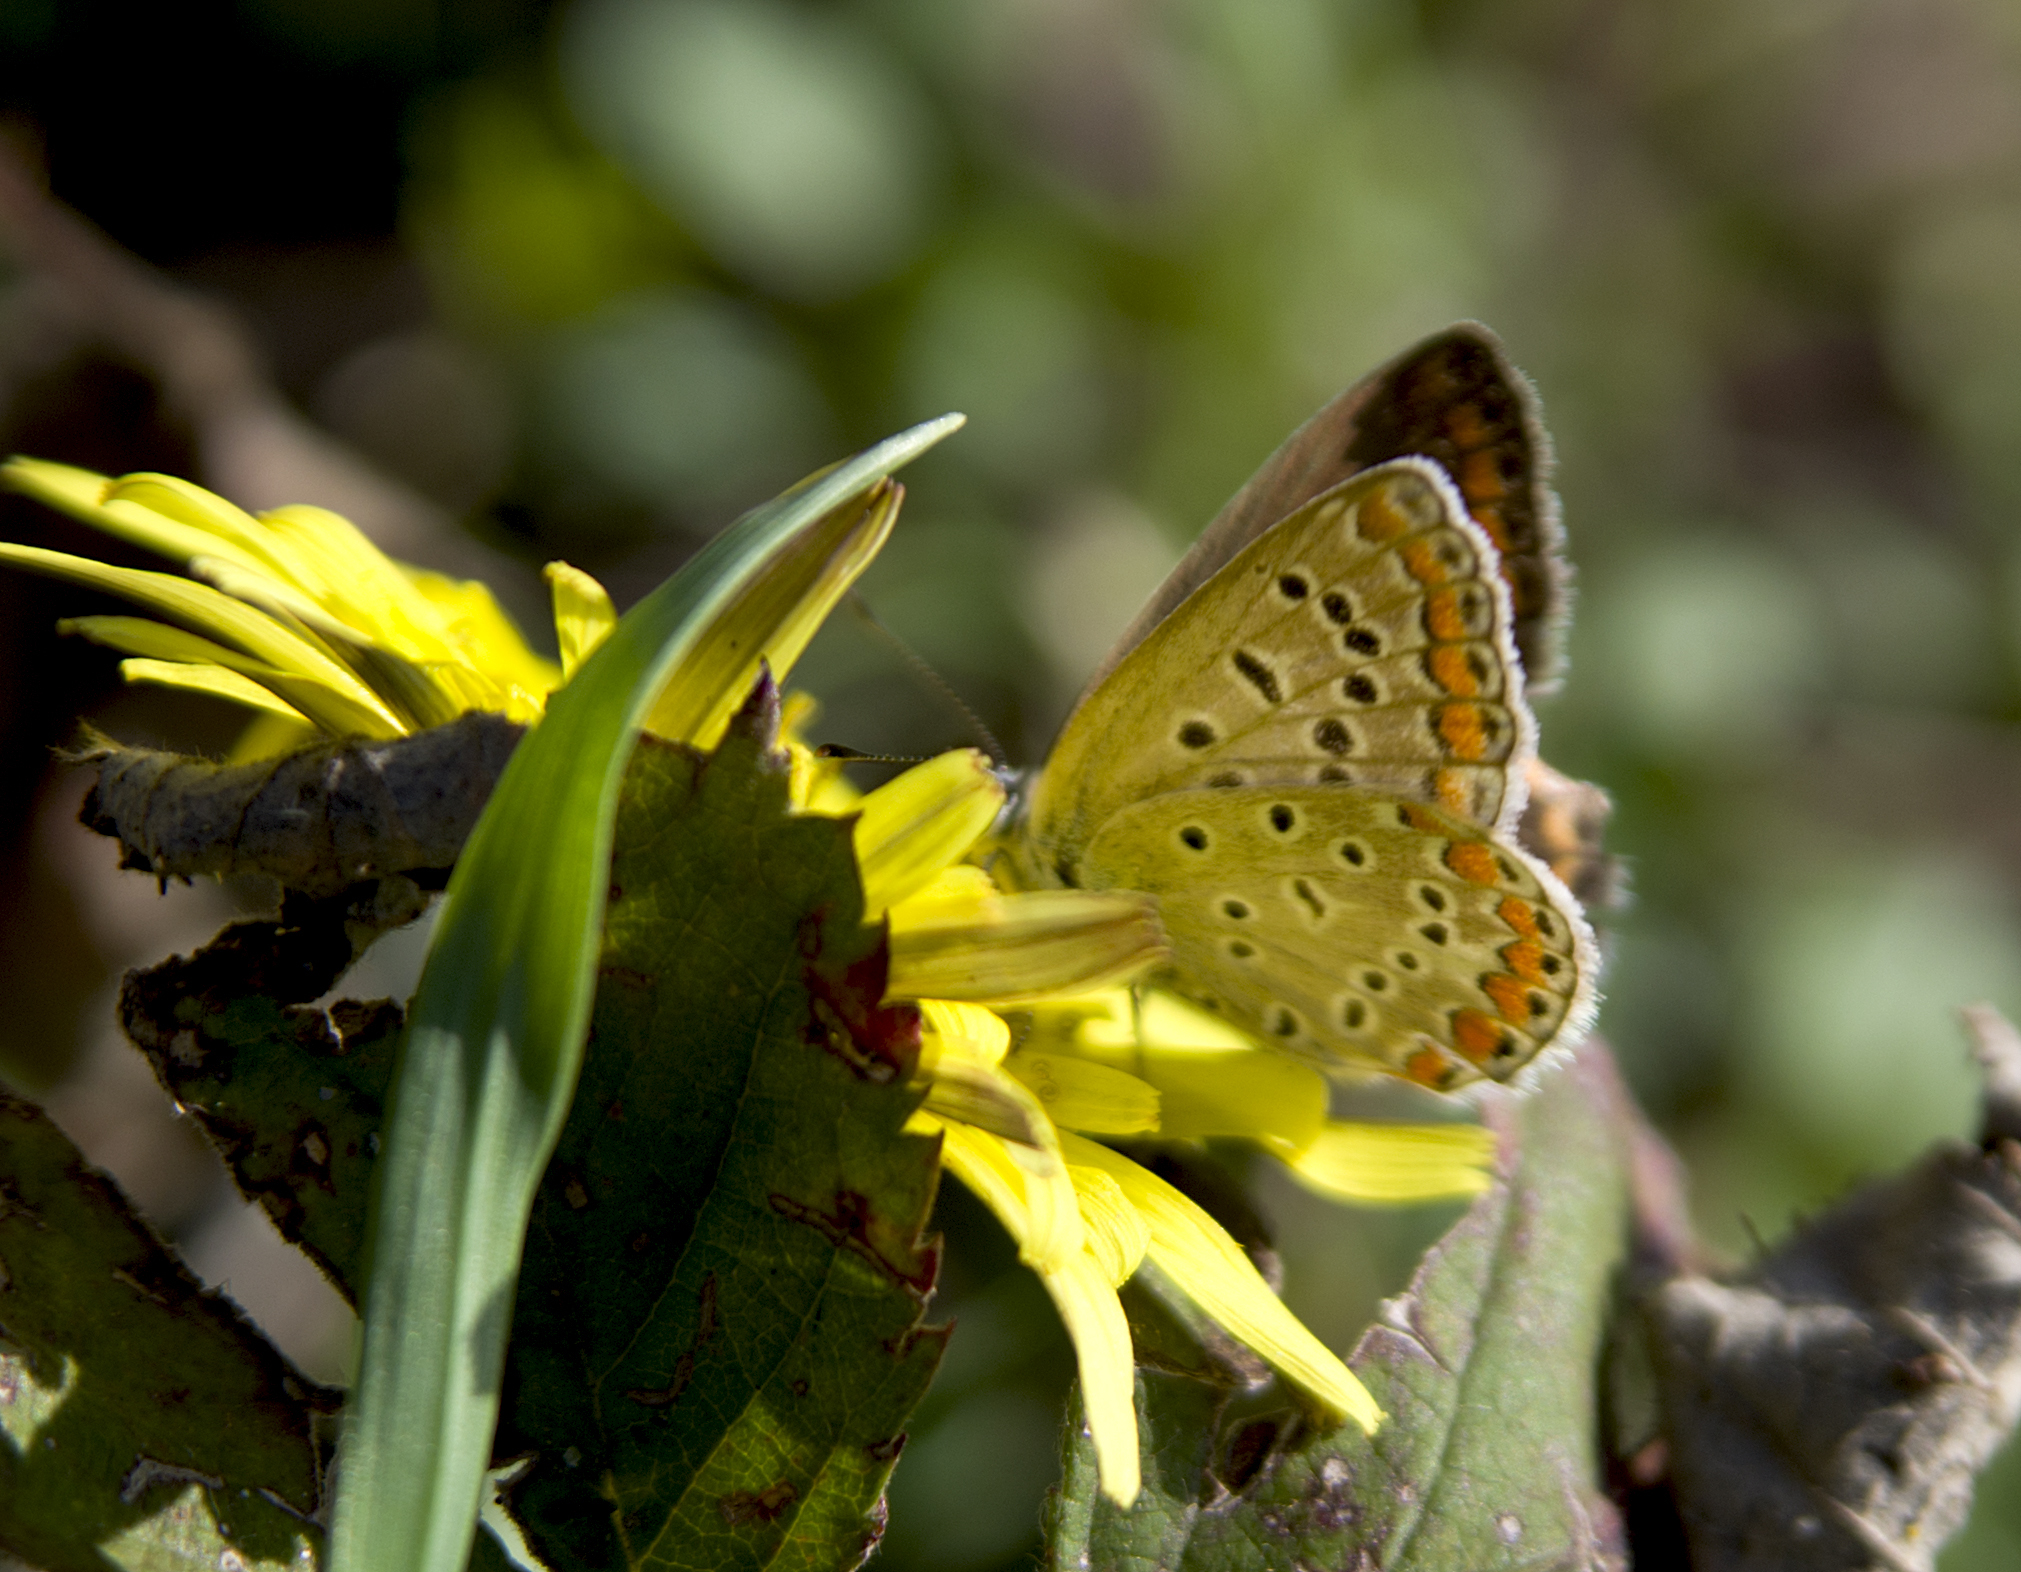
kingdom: Animalia
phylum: Arthropoda
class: Insecta
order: Lepidoptera
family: Lycaenidae
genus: Polyommatus
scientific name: Polyommatus icarus
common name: Common blue
